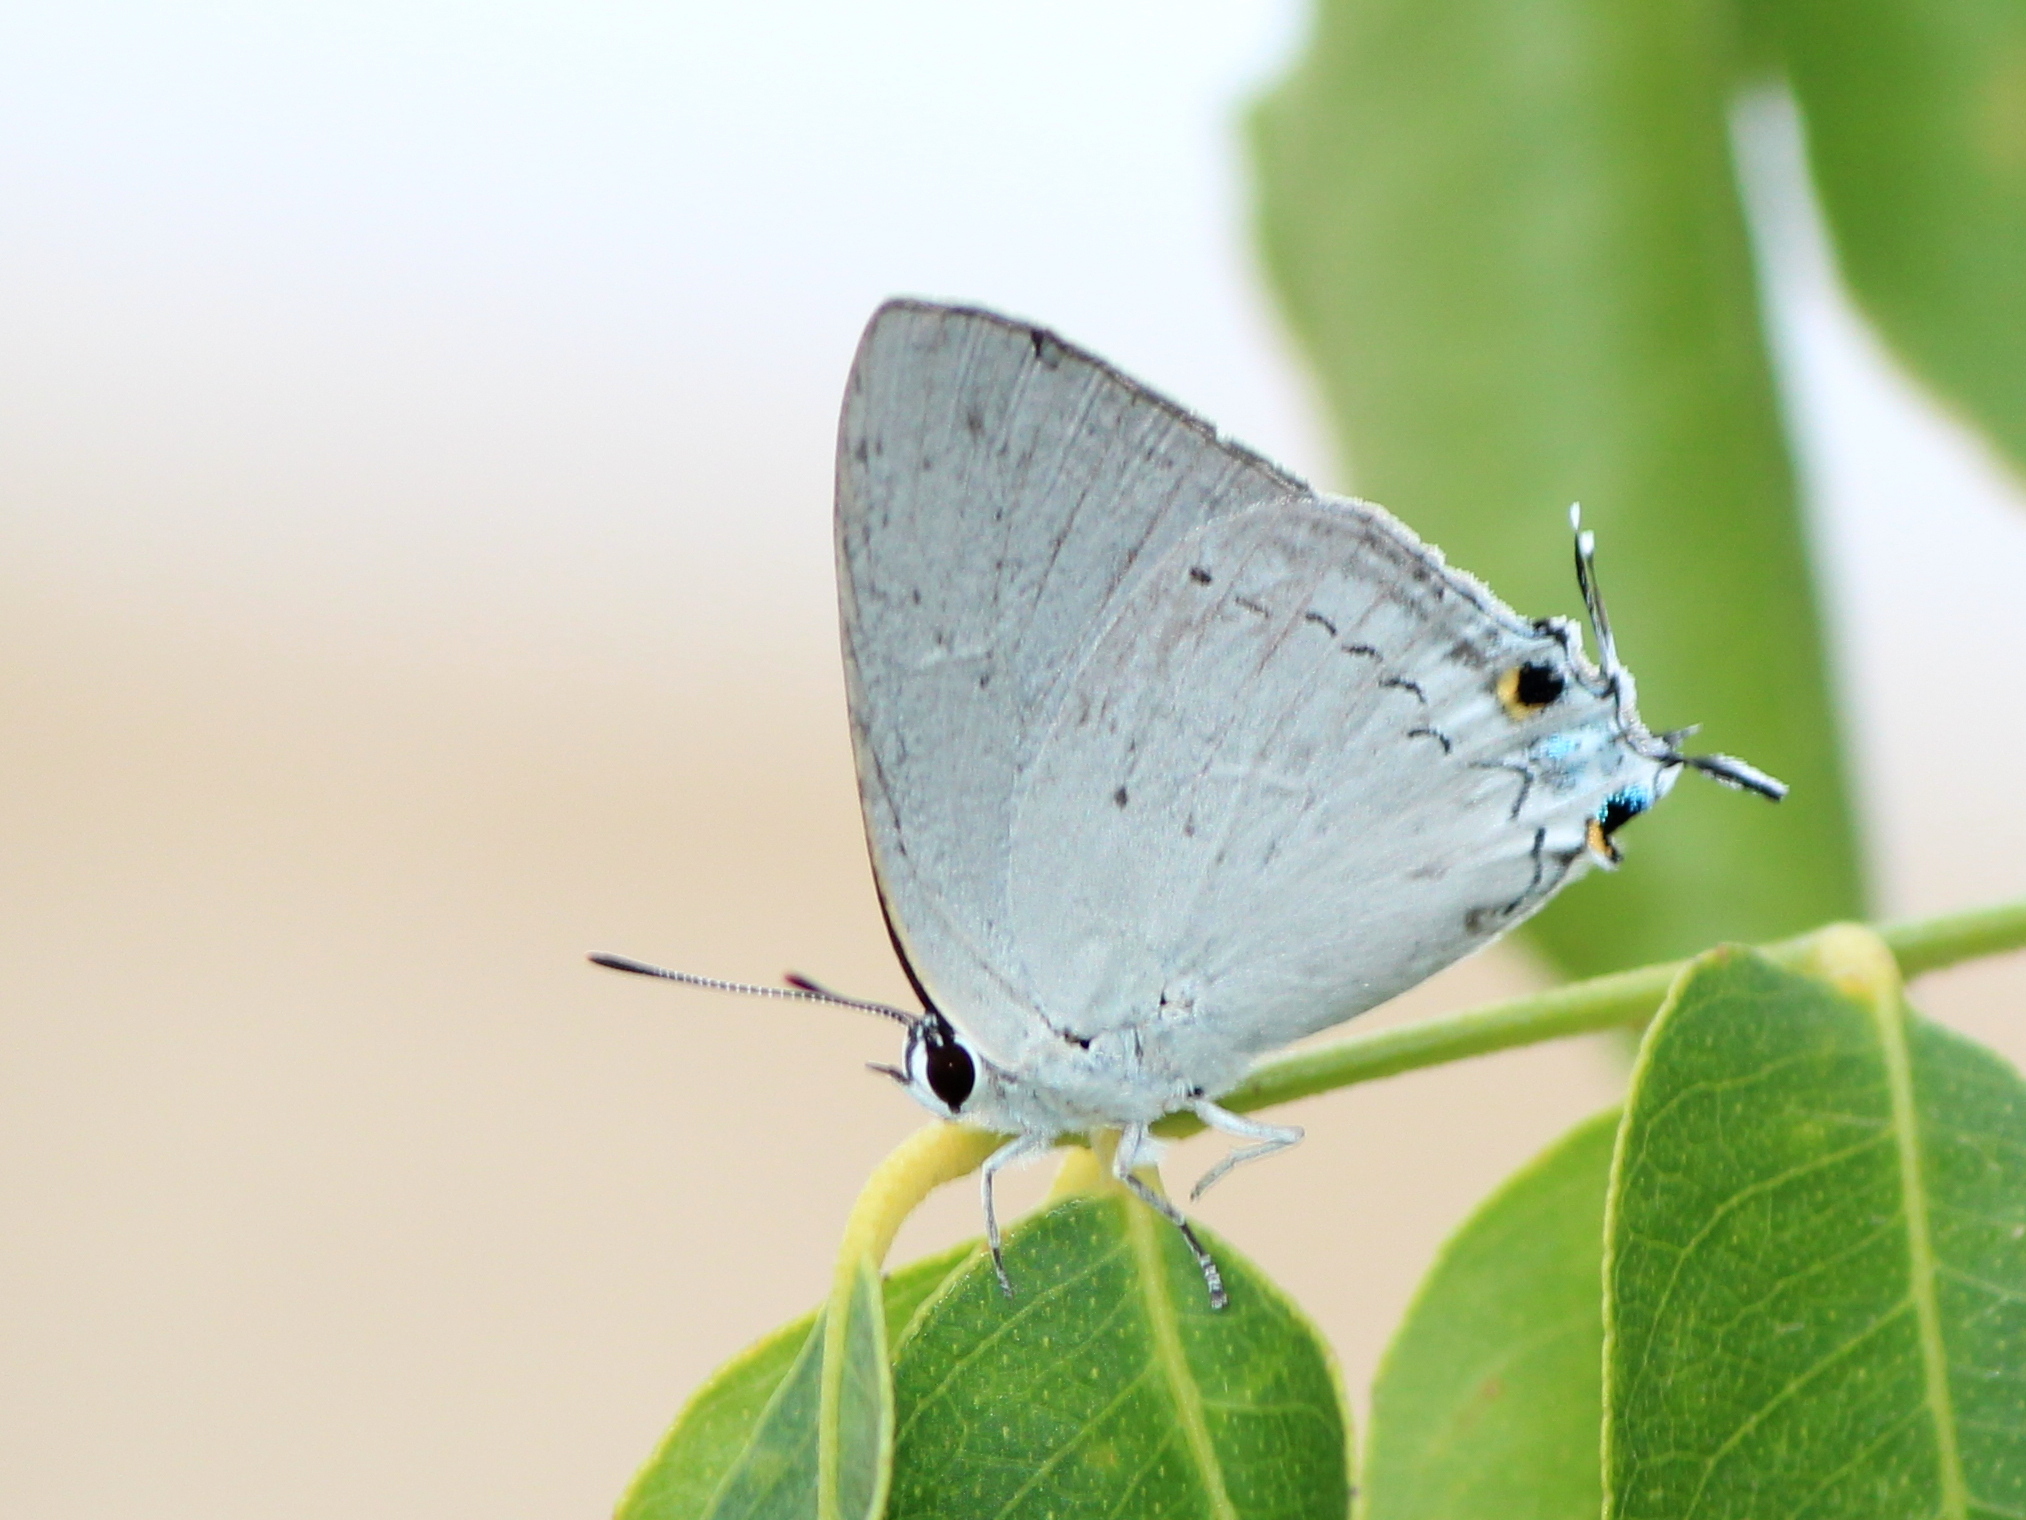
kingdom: Animalia
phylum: Arthropoda
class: Insecta
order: Lepidoptera
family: Lycaenidae
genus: Tajuria
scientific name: Tajuria cippus
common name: Peacock royal
